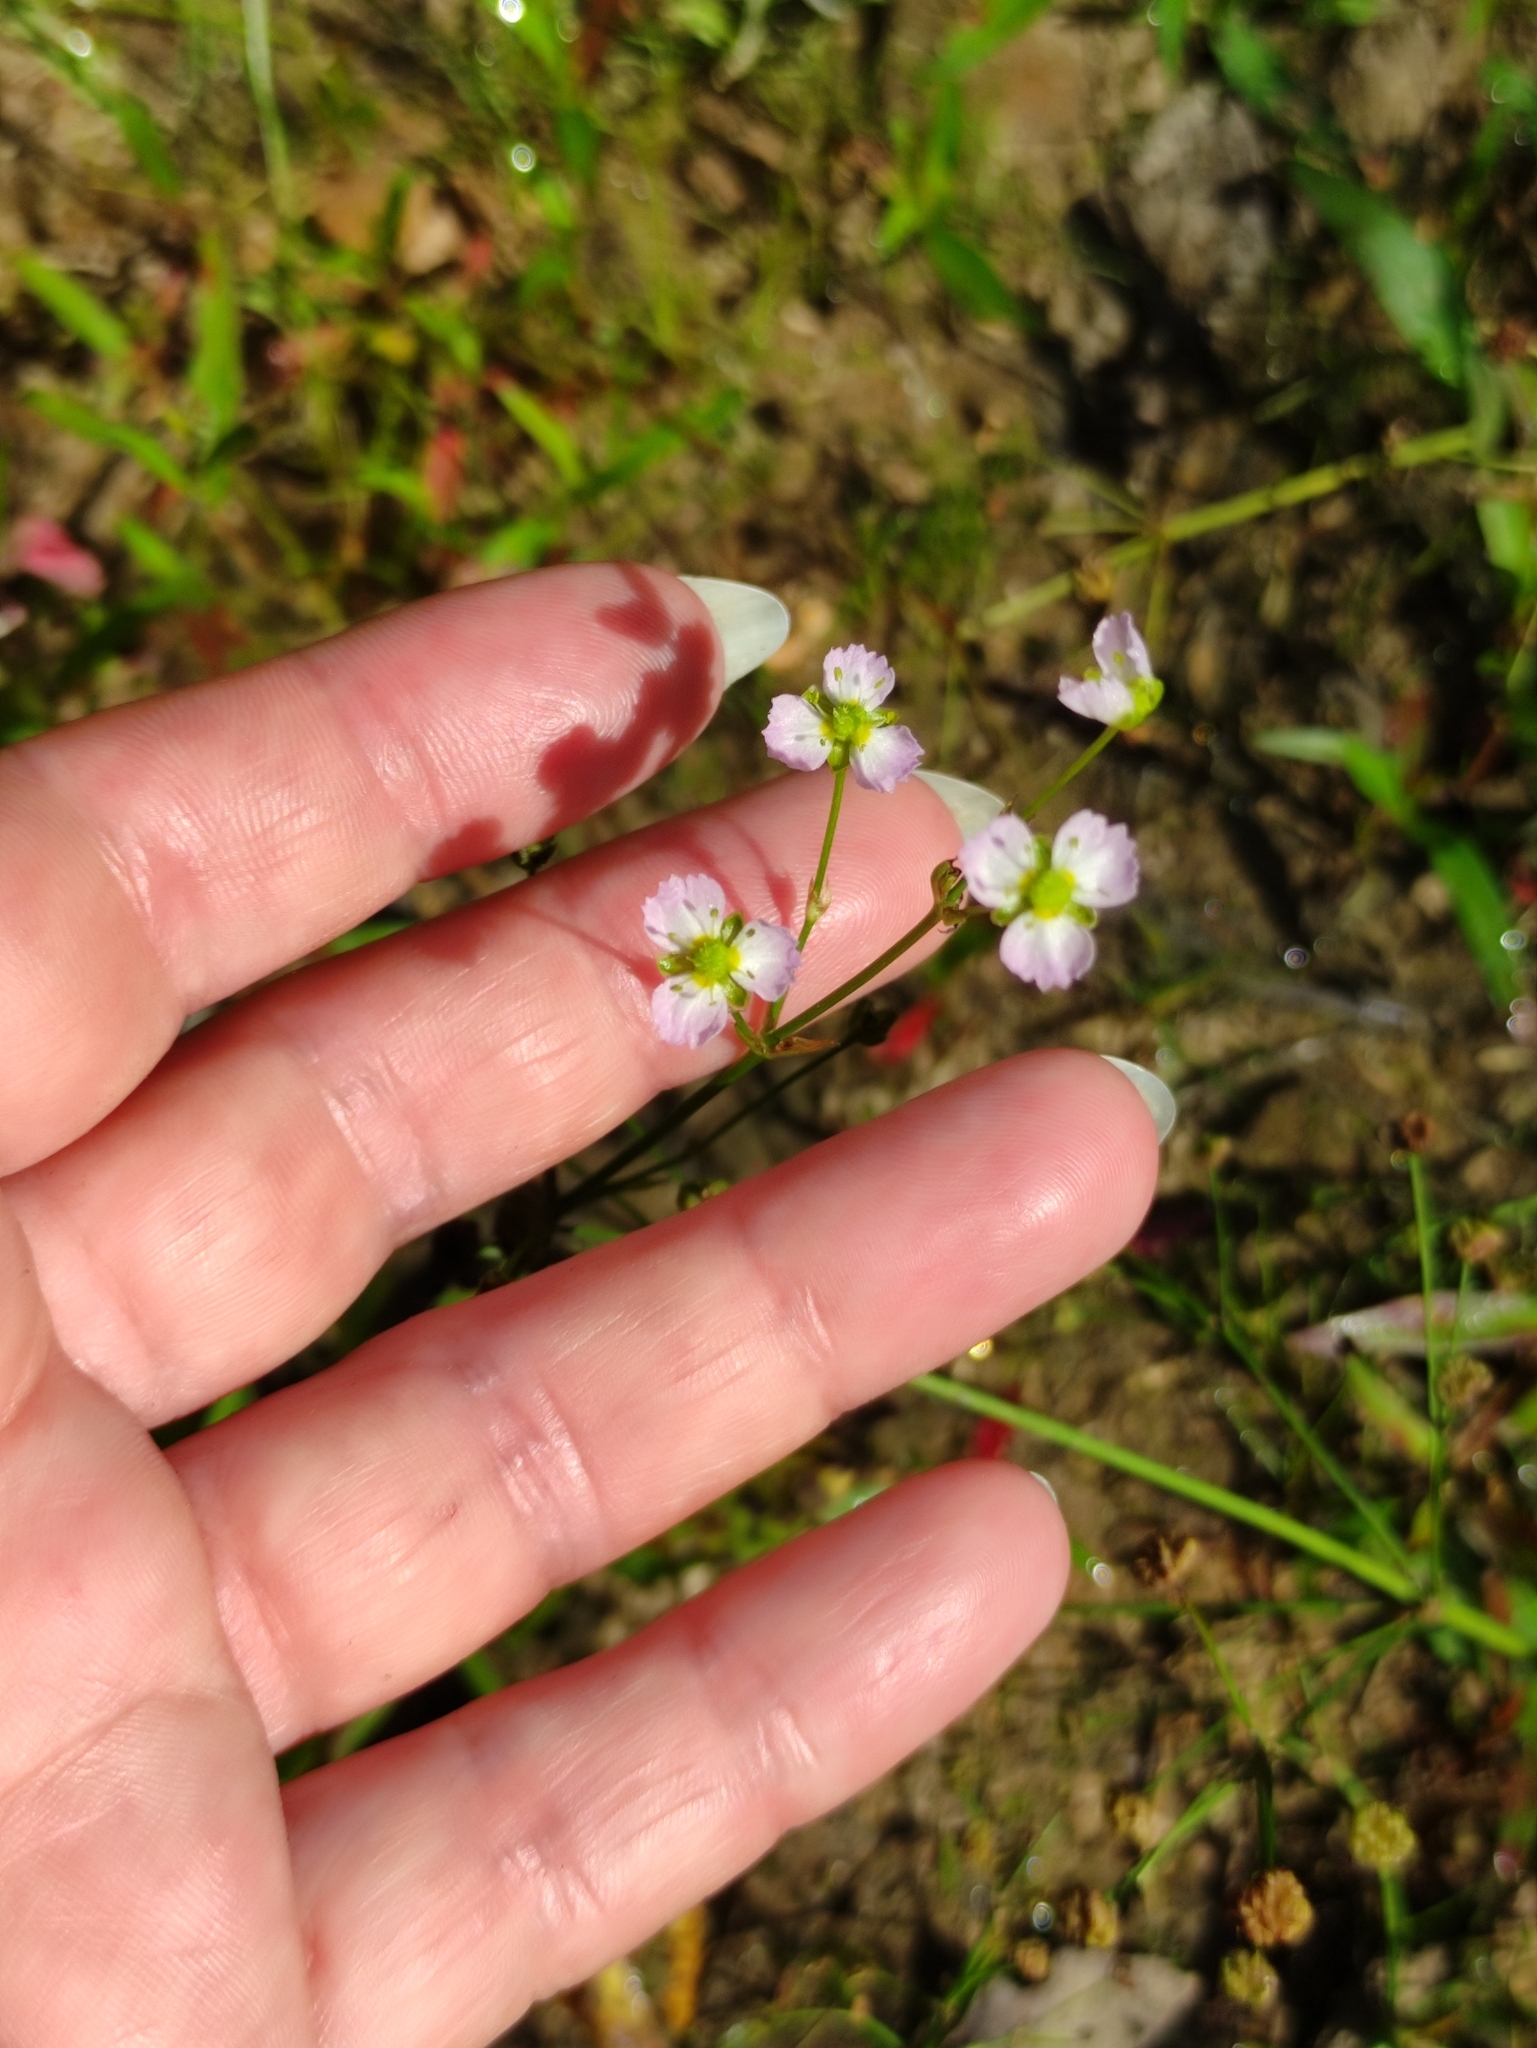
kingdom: Plantae
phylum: Tracheophyta
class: Liliopsida
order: Alismatales
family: Alismataceae
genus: Alisma
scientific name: Alisma plantago-aquatica
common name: Water-plantain
